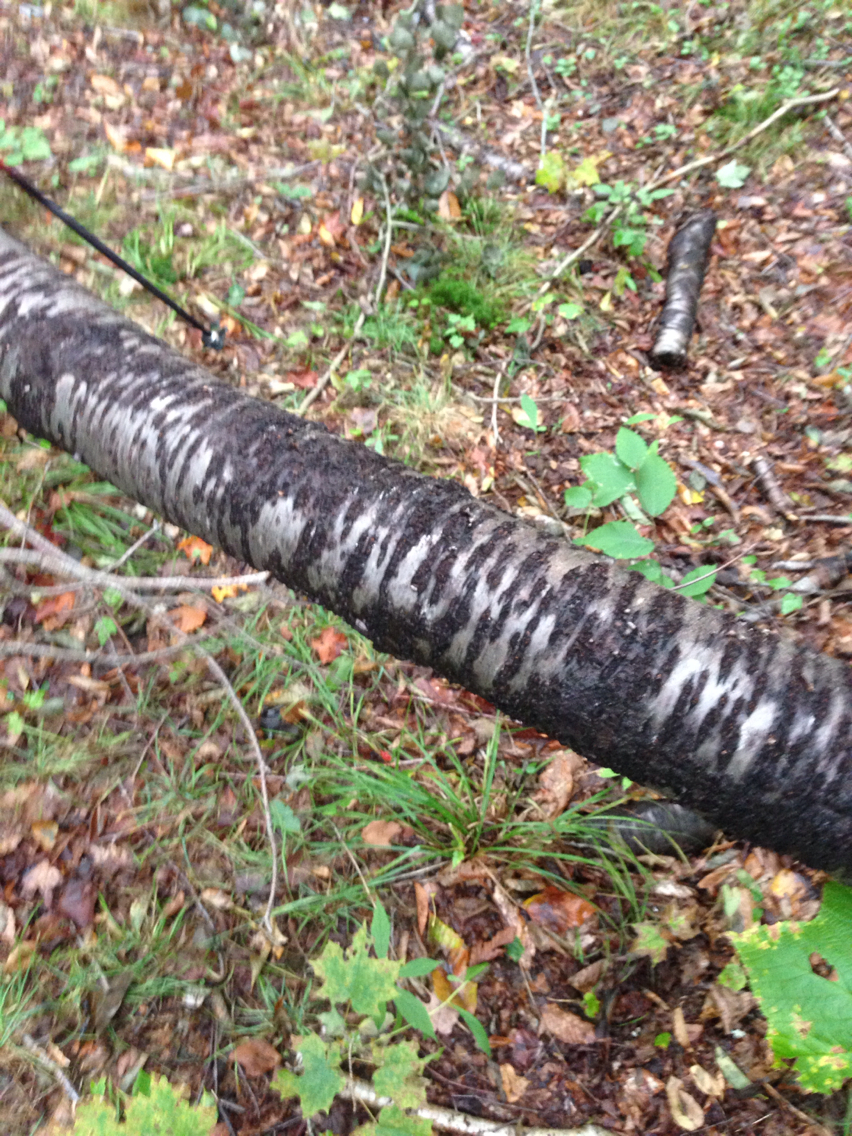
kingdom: Plantae
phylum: Tracheophyta
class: Magnoliopsida
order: Rosales
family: Rosaceae
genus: Prunus
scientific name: Prunus pensylvanica
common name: Pin cherry
